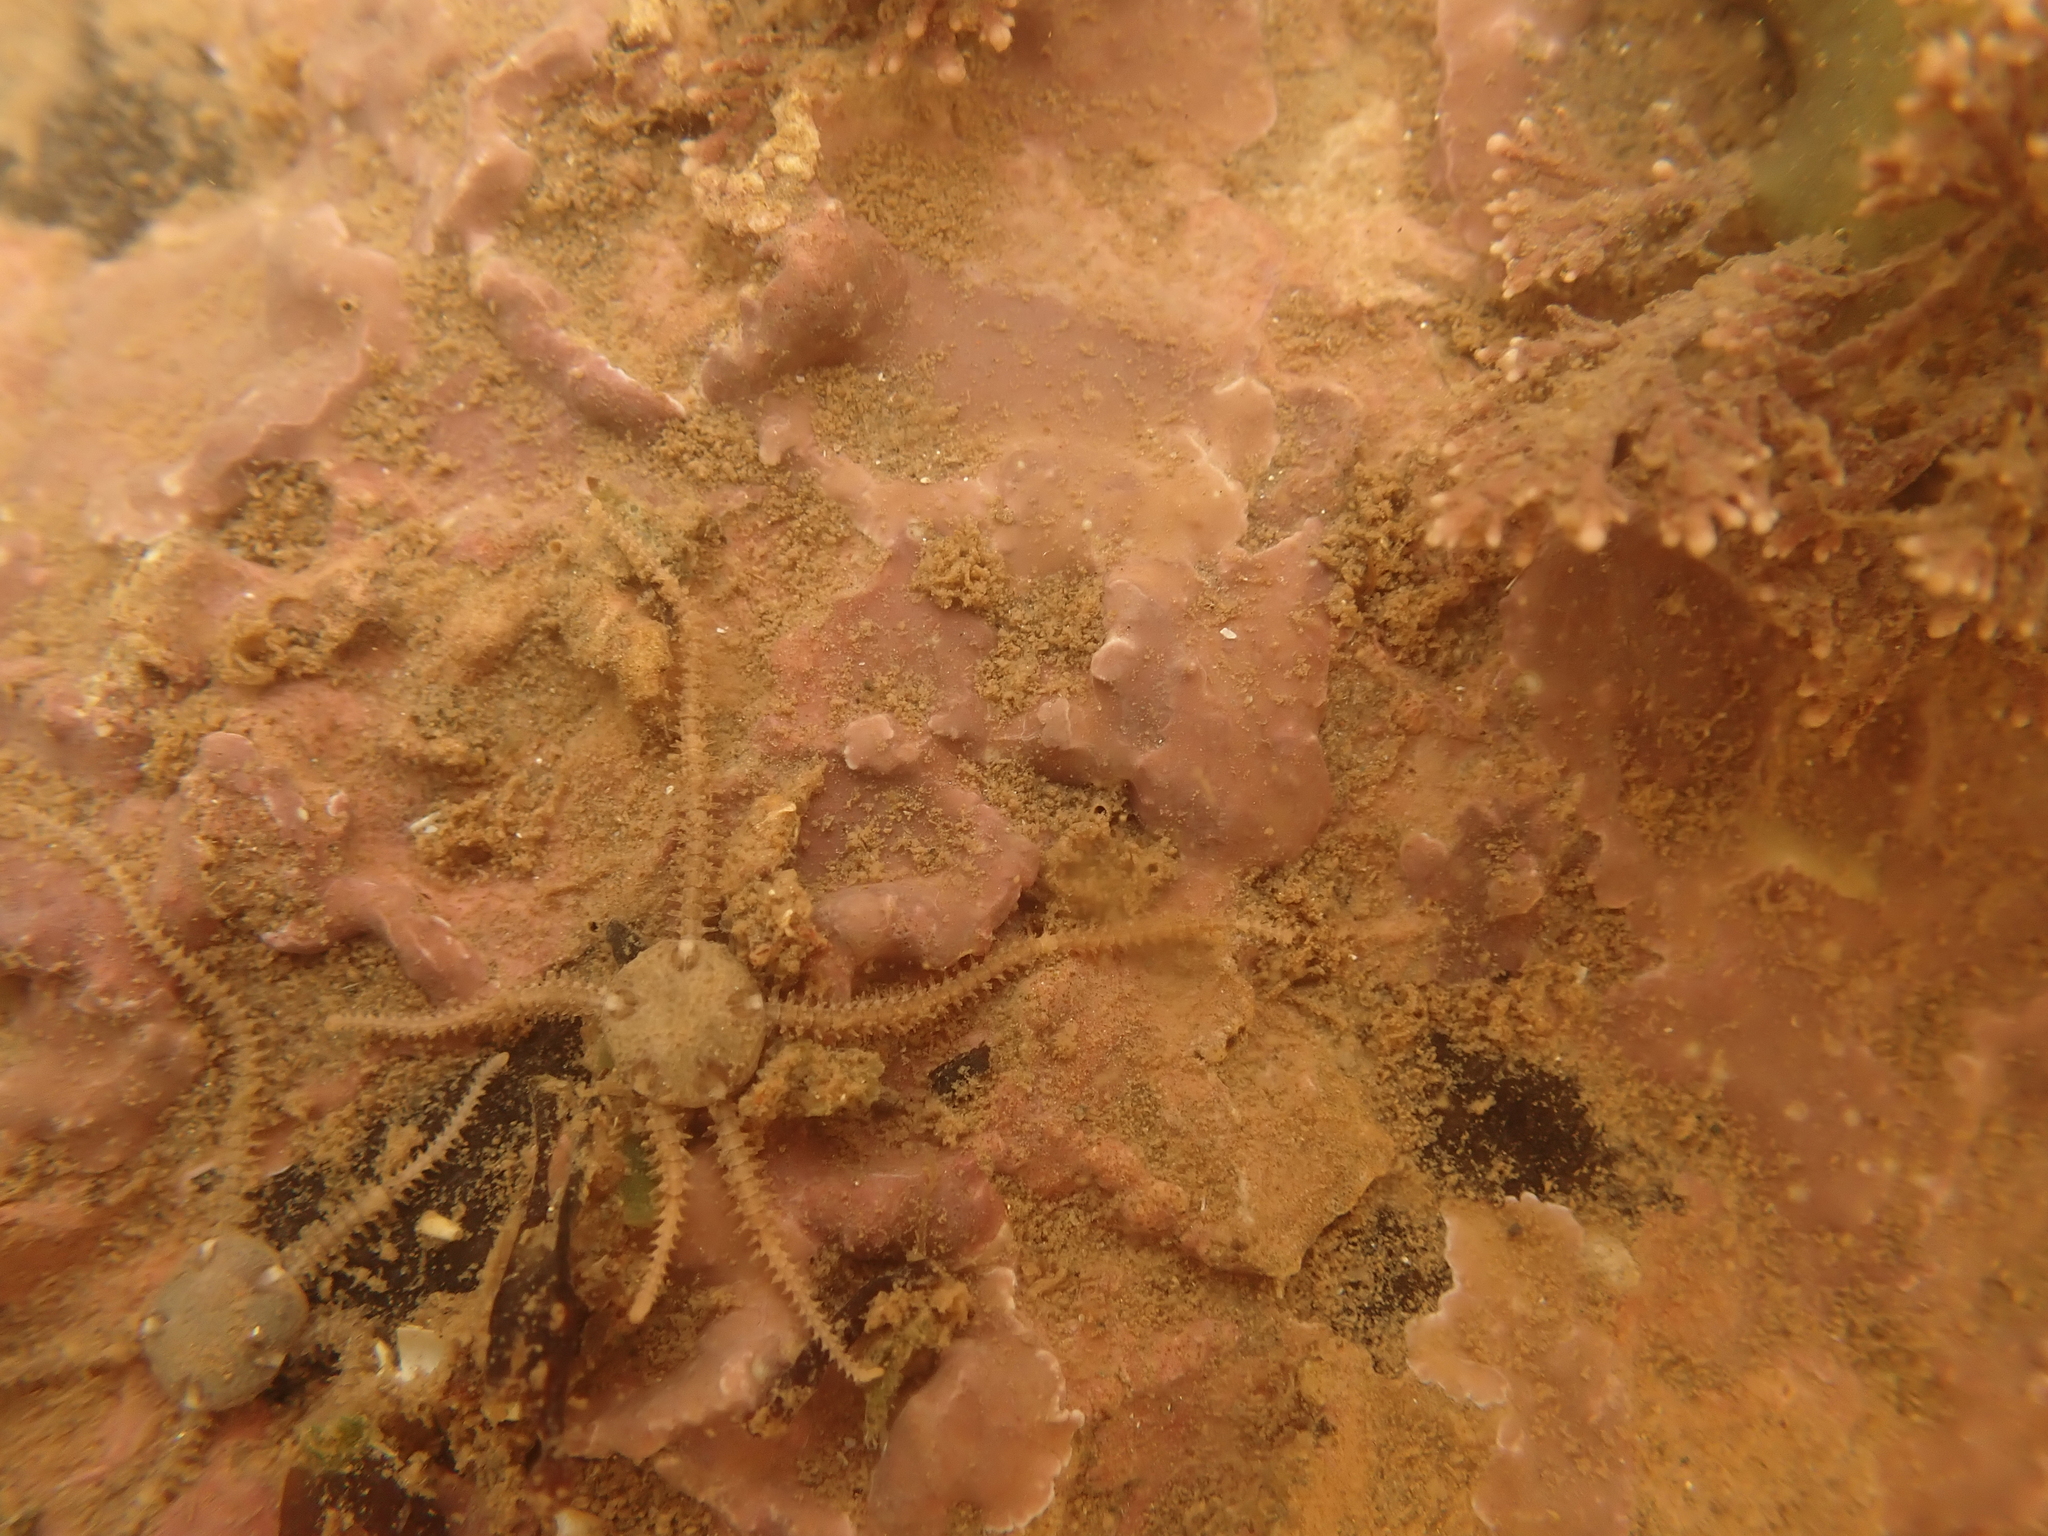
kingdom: Animalia
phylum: Echinodermata
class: Ophiuroidea
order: Amphilepidida
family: Amphiuridae
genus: Amphipholis
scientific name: Amphipholis squamata
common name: Brooding snake star
